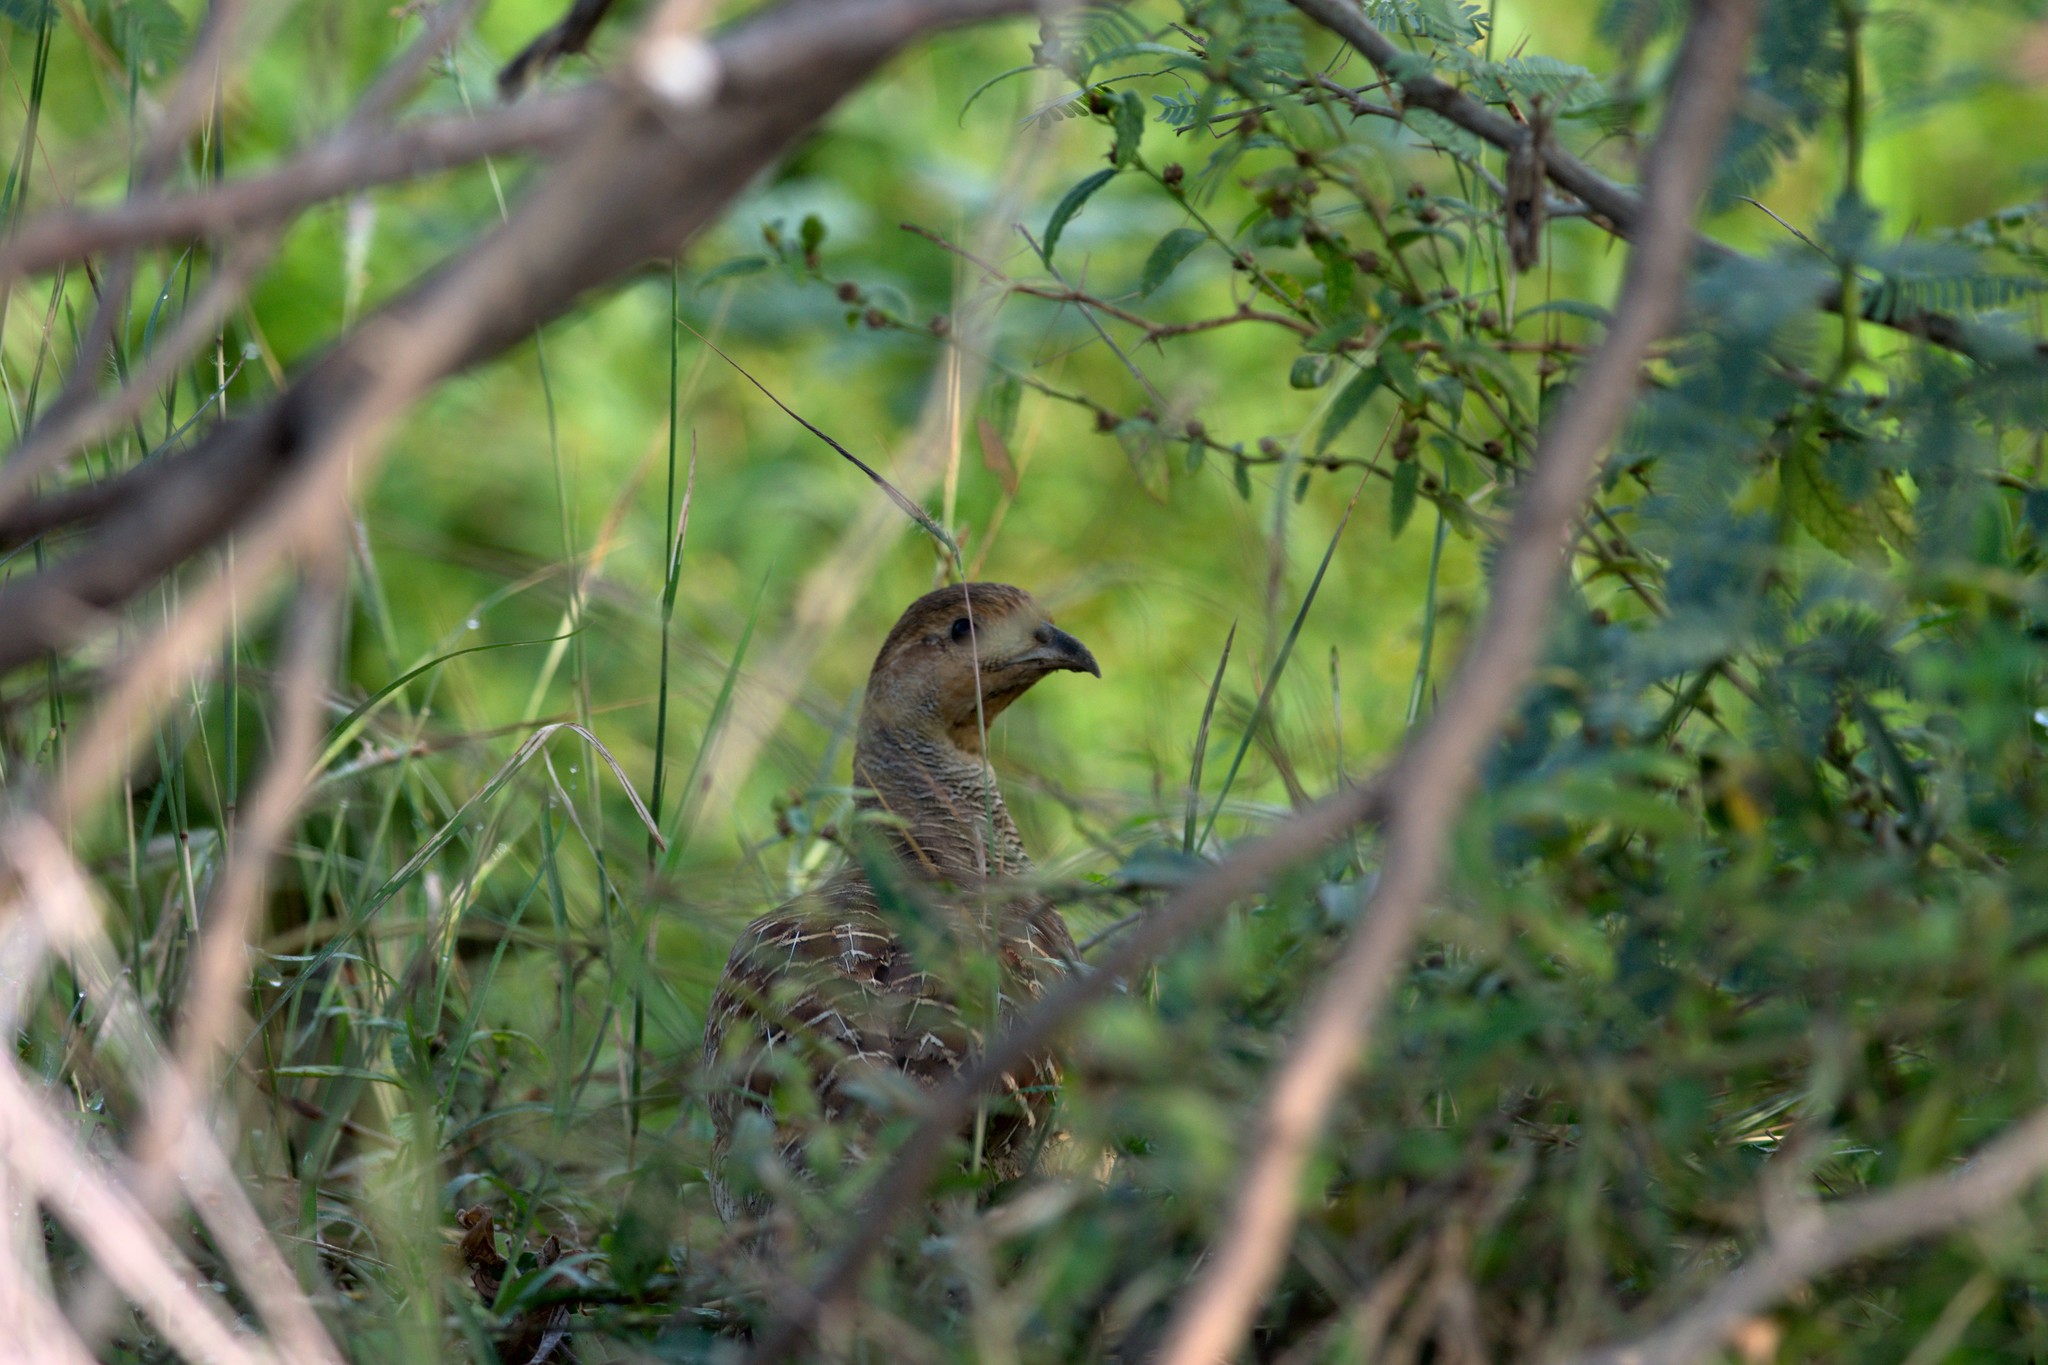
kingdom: Animalia
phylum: Chordata
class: Aves
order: Galliformes
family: Phasianidae
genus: Ortygornis
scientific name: Ortygornis pondicerianus
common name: Grey francolin
